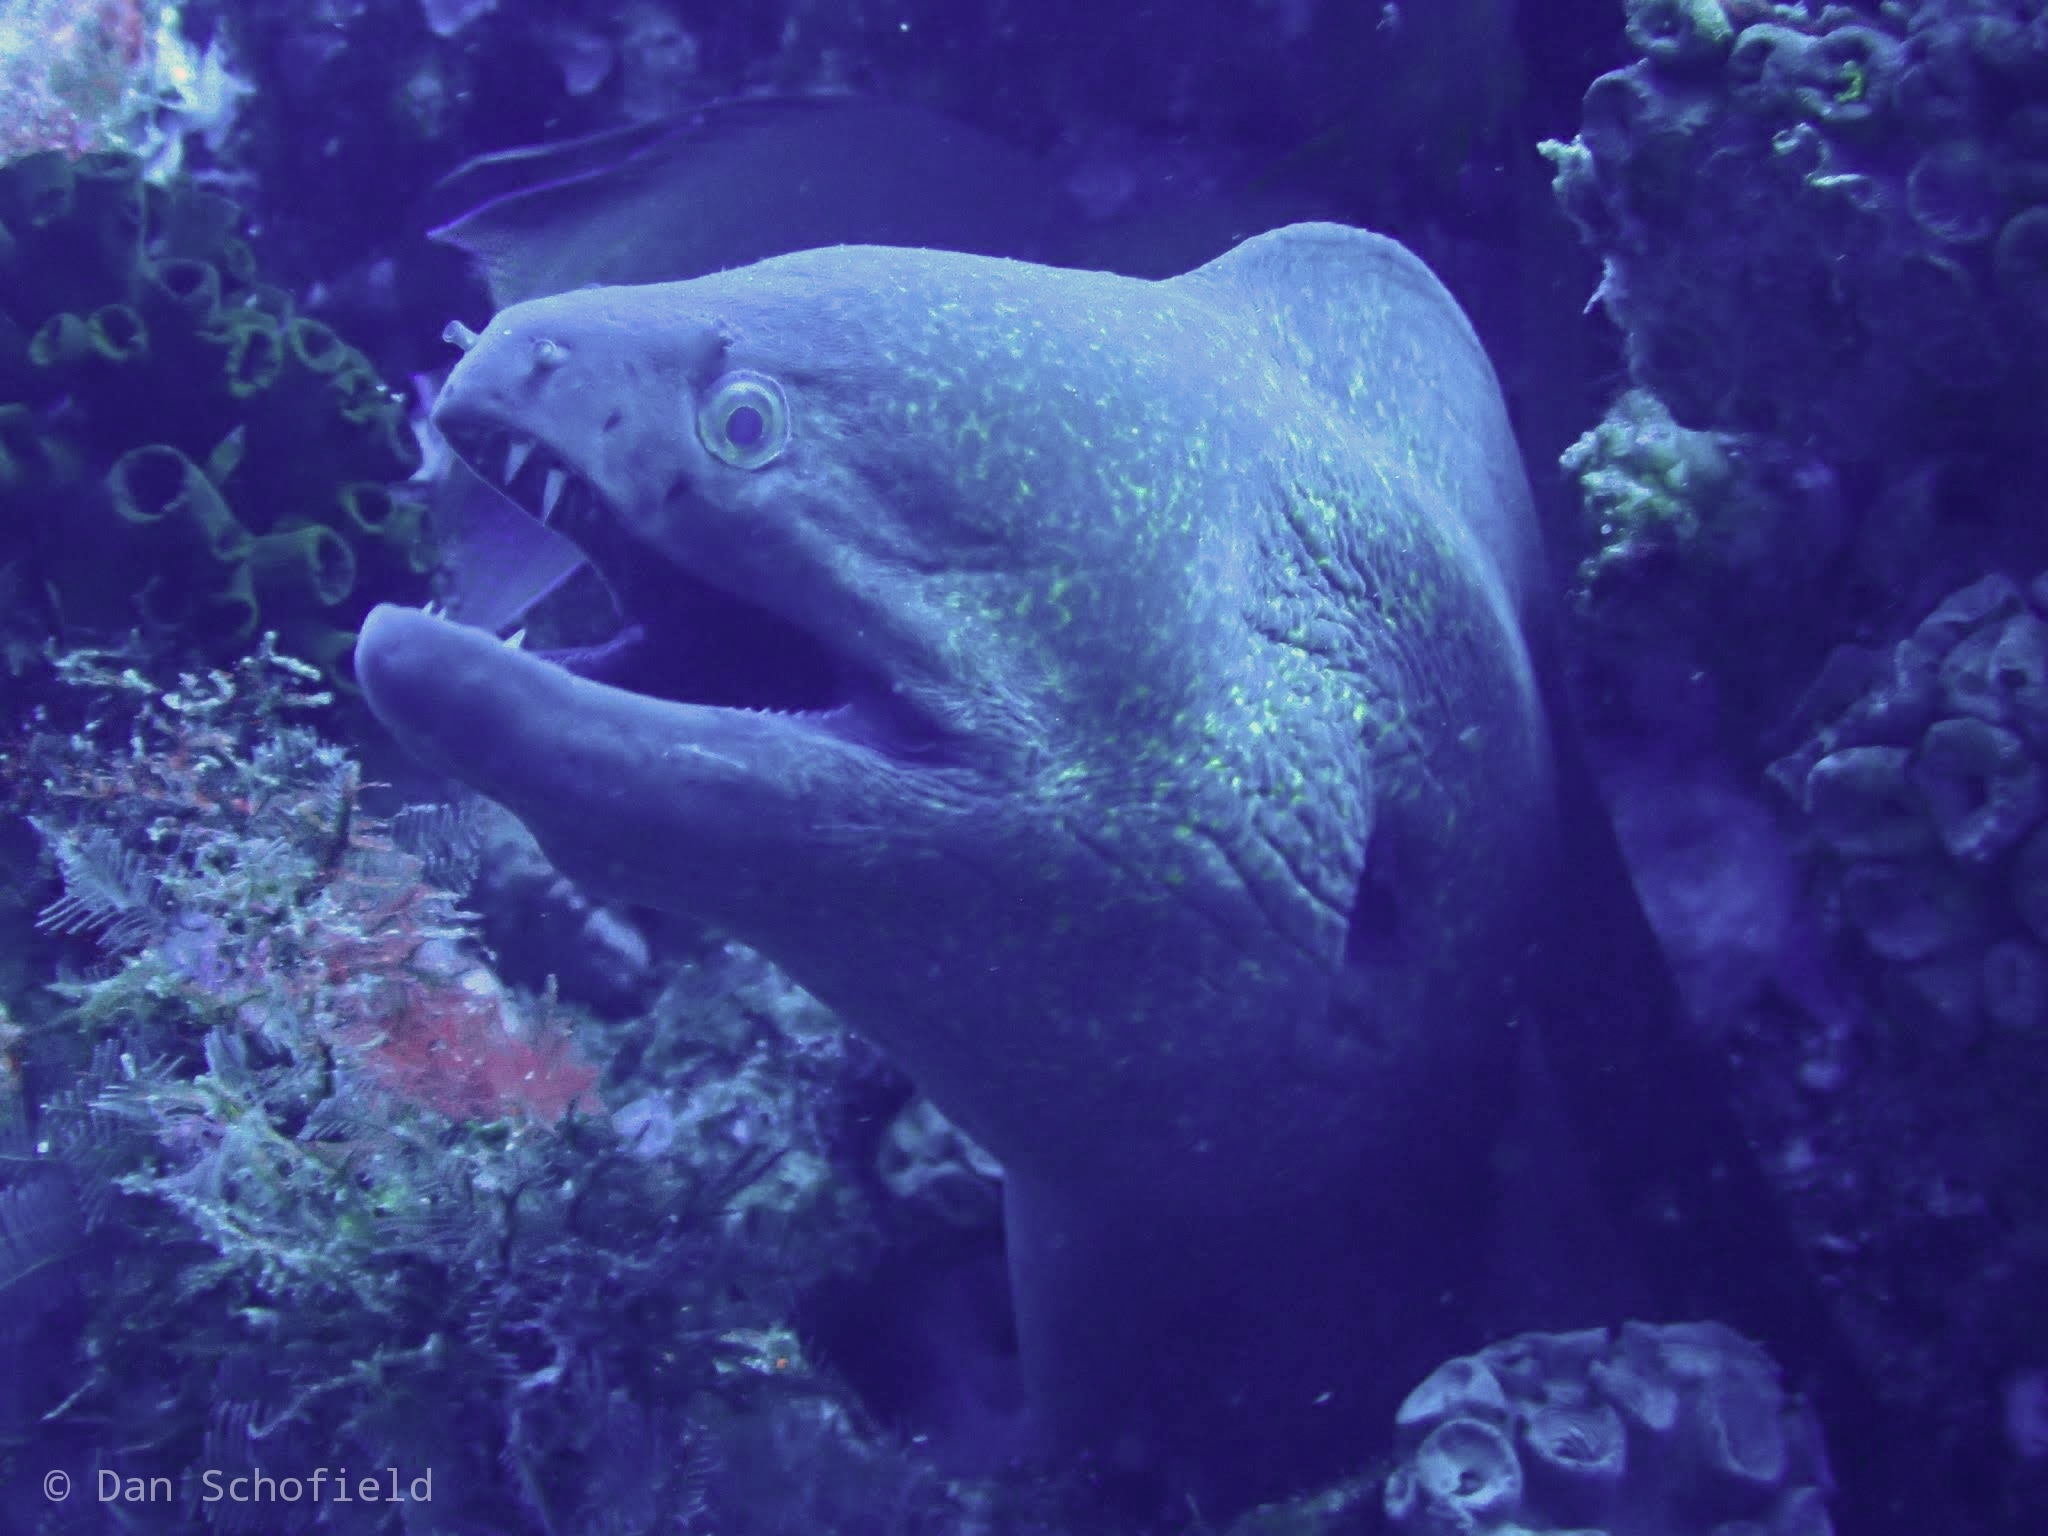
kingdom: Animalia
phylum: Chordata
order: Anguilliformes
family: Muraenidae
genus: Gymnothorax
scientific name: Gymnothorax javanicus
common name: Giant moray
